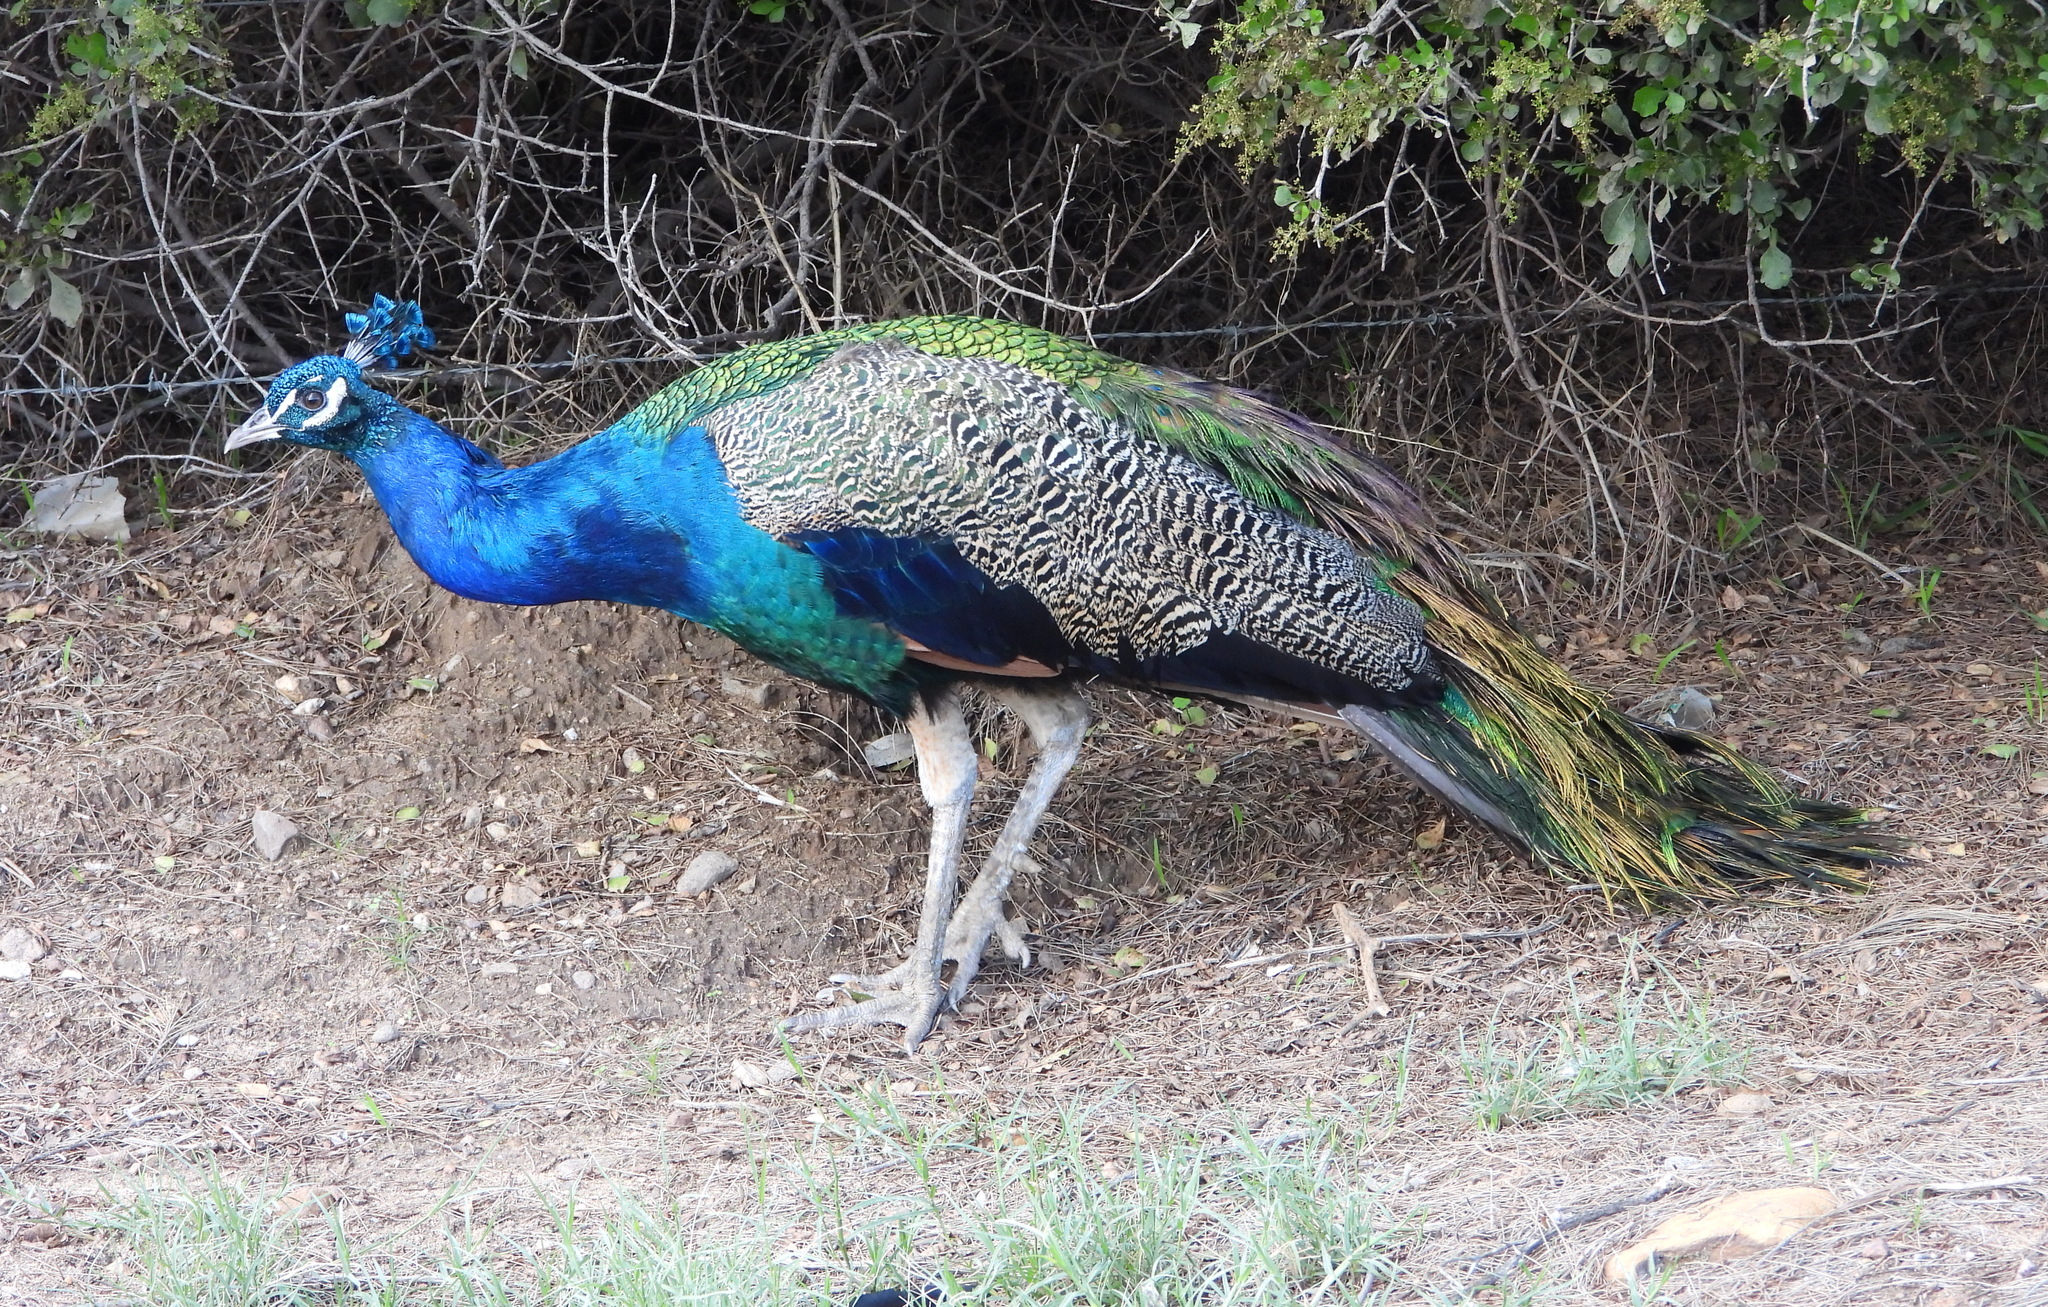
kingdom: Animalia
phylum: Chordata
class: Aves
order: Galliformes
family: Phasianidae
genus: Pavo
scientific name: Pavo cristatus
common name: Indian peafowl
